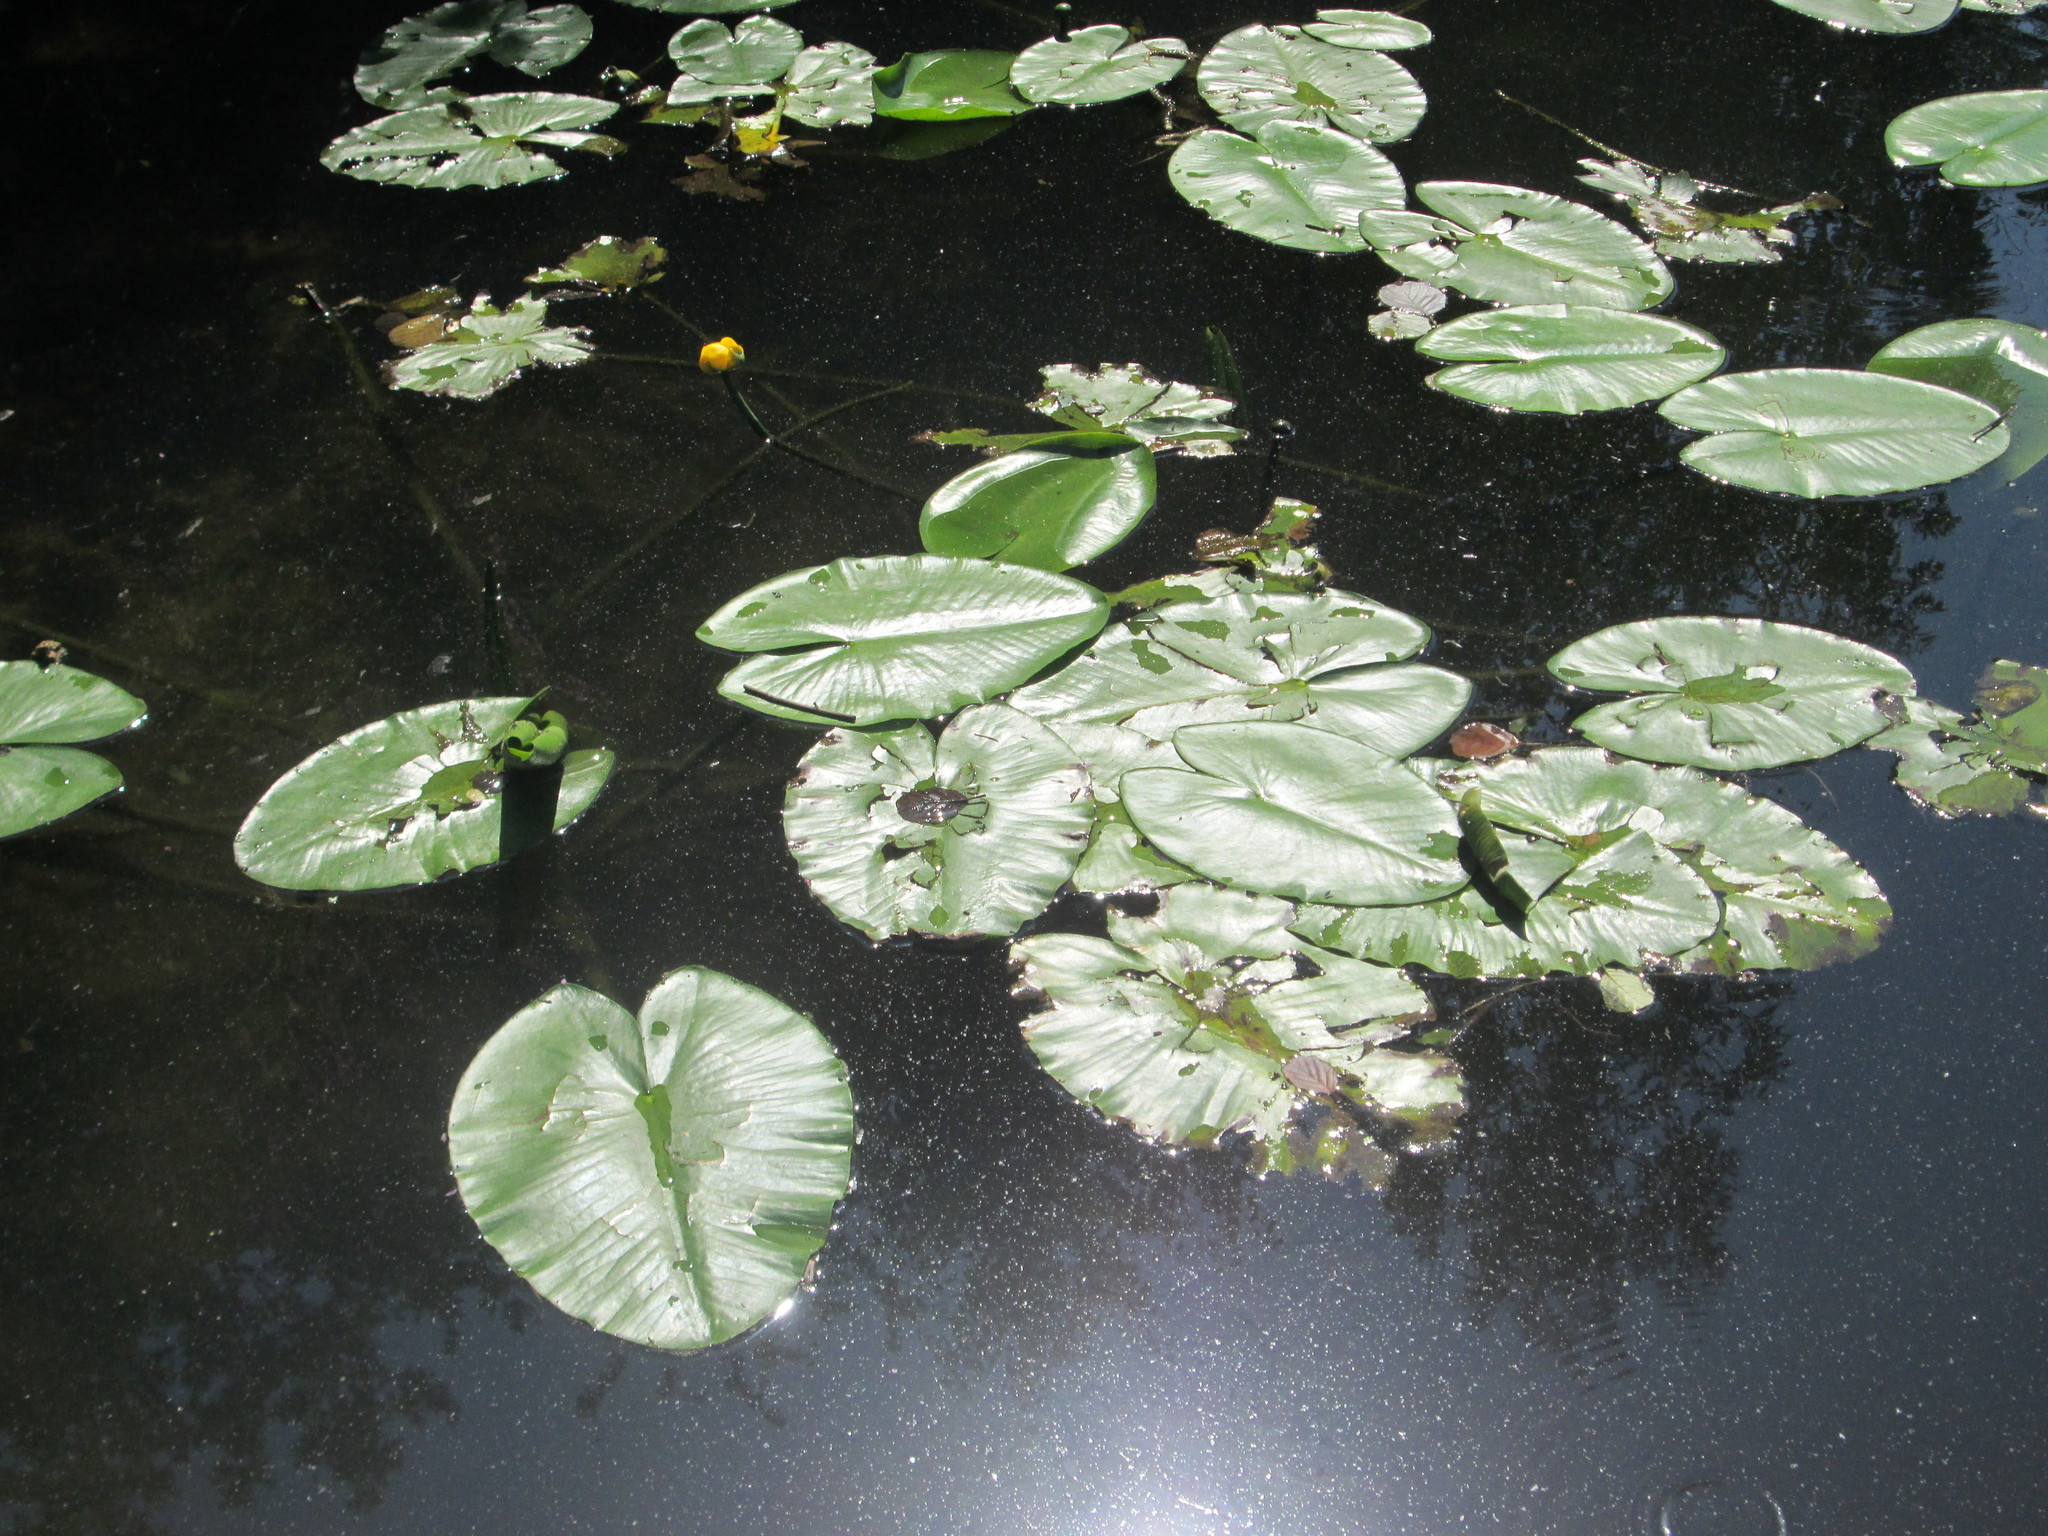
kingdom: Plantae
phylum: Tracheophyta
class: Magnoliopsida
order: Nymphaeales
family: Nymphaeaceae
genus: Nuphar
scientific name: Nuphar lutea
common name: Yellow water-lily
